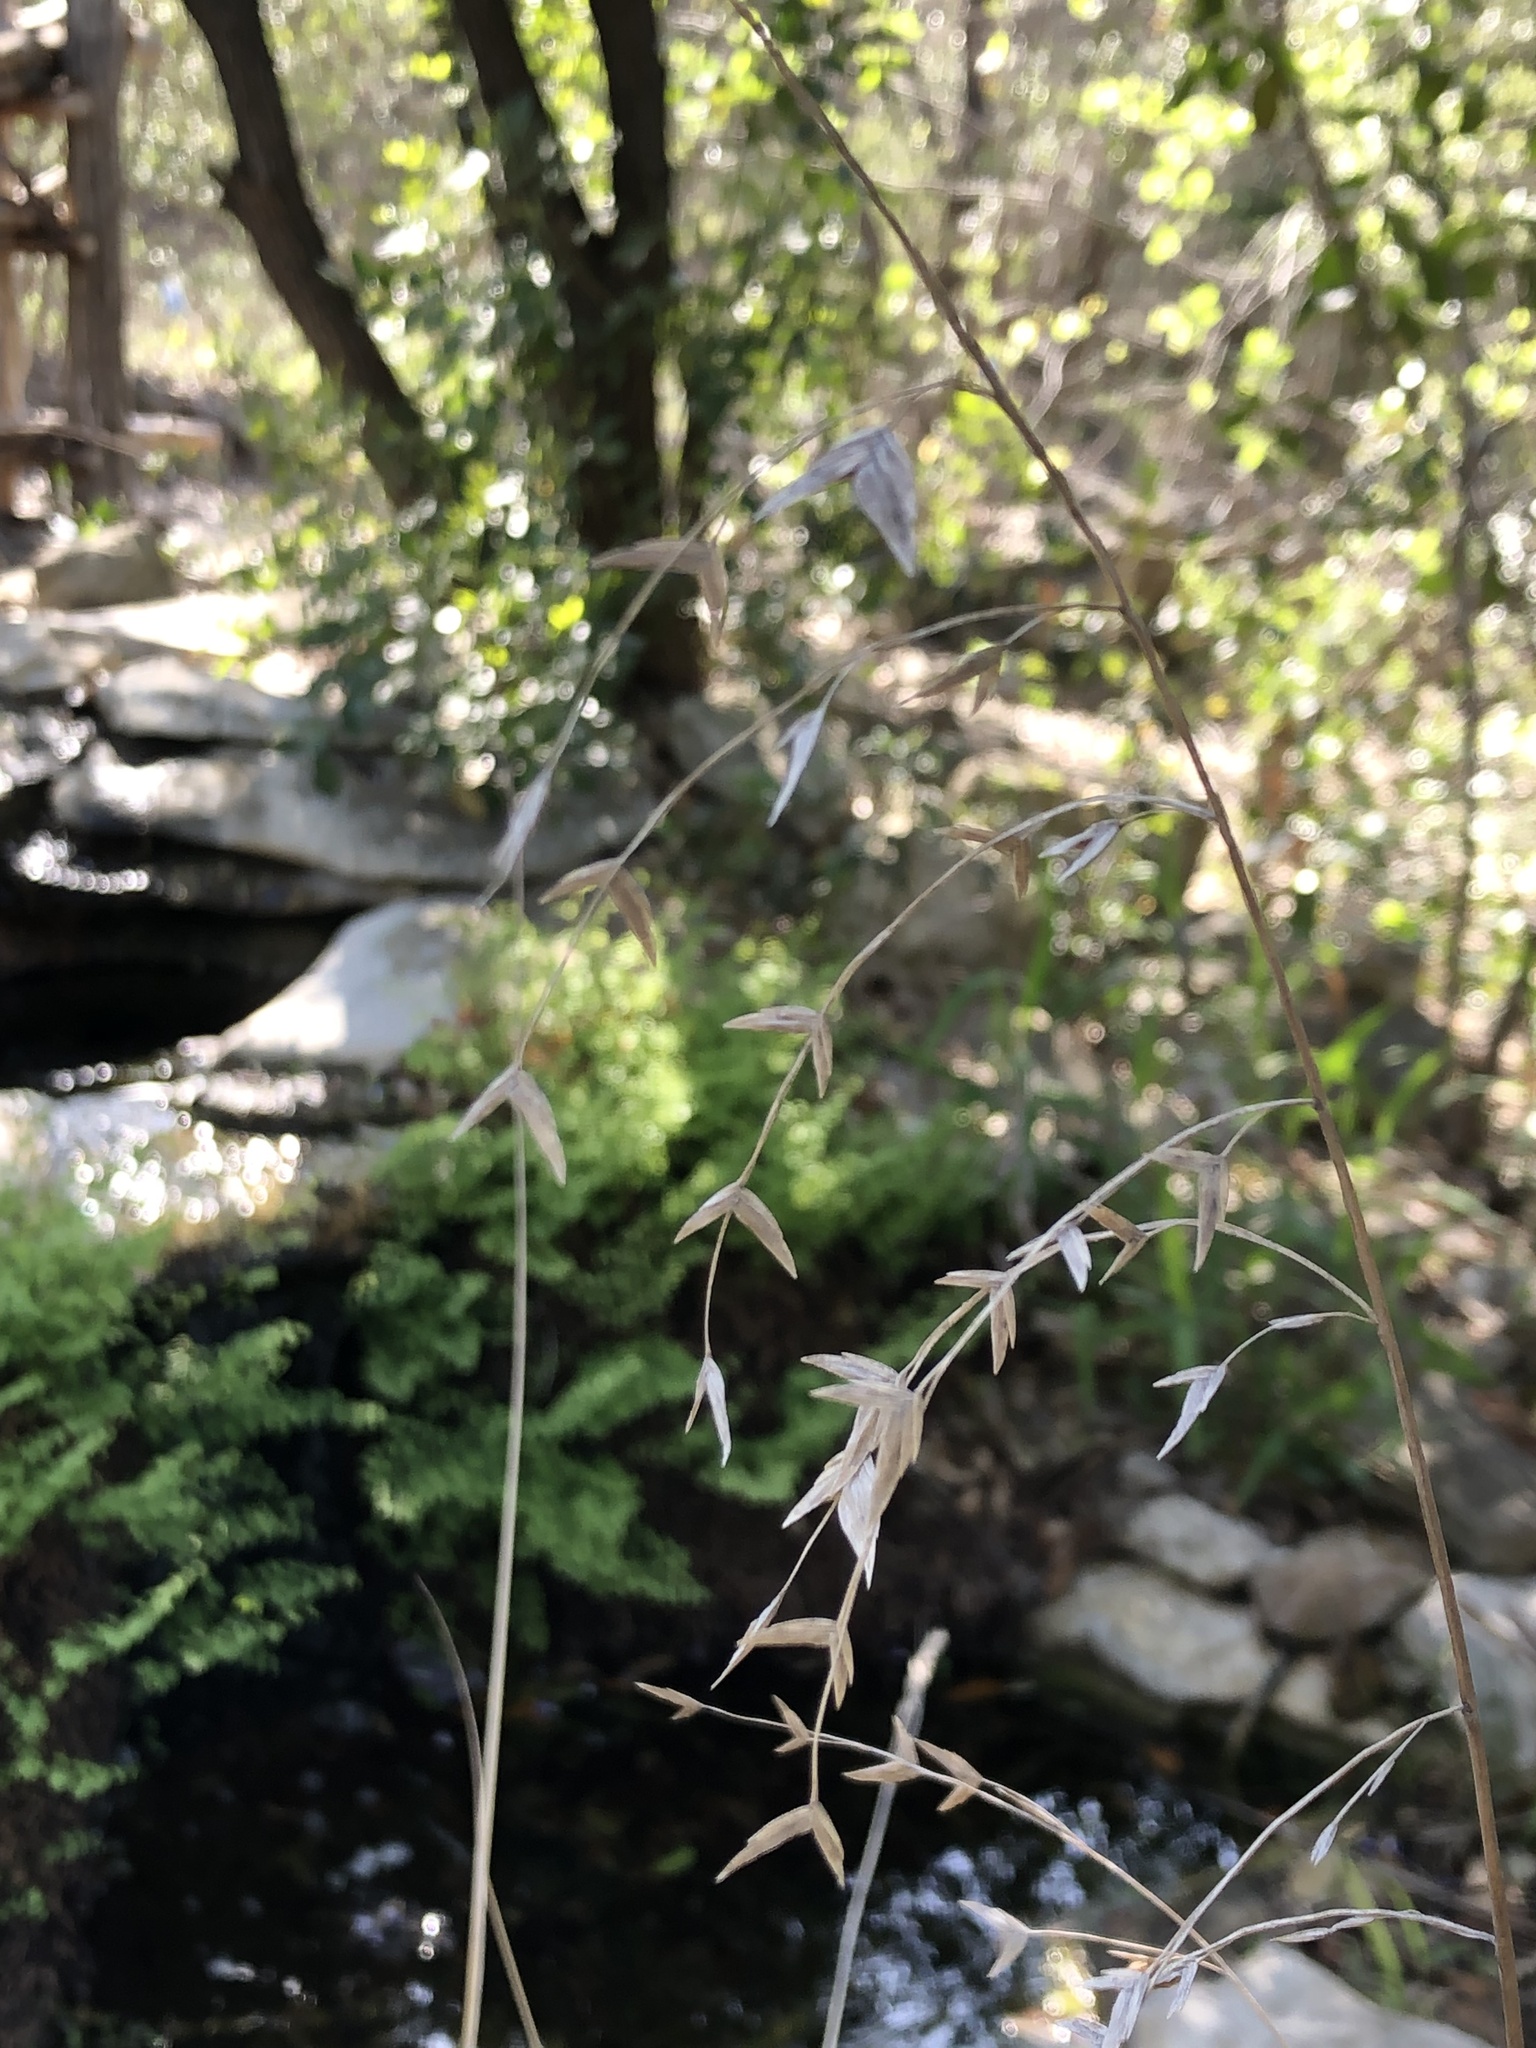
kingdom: Plantae
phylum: Tracheophyta
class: Liliopsida
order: Poales
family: Poaceae
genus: Chasmanthium
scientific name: Chasmanthium latifolium
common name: Broad-leaved chasmanthium
